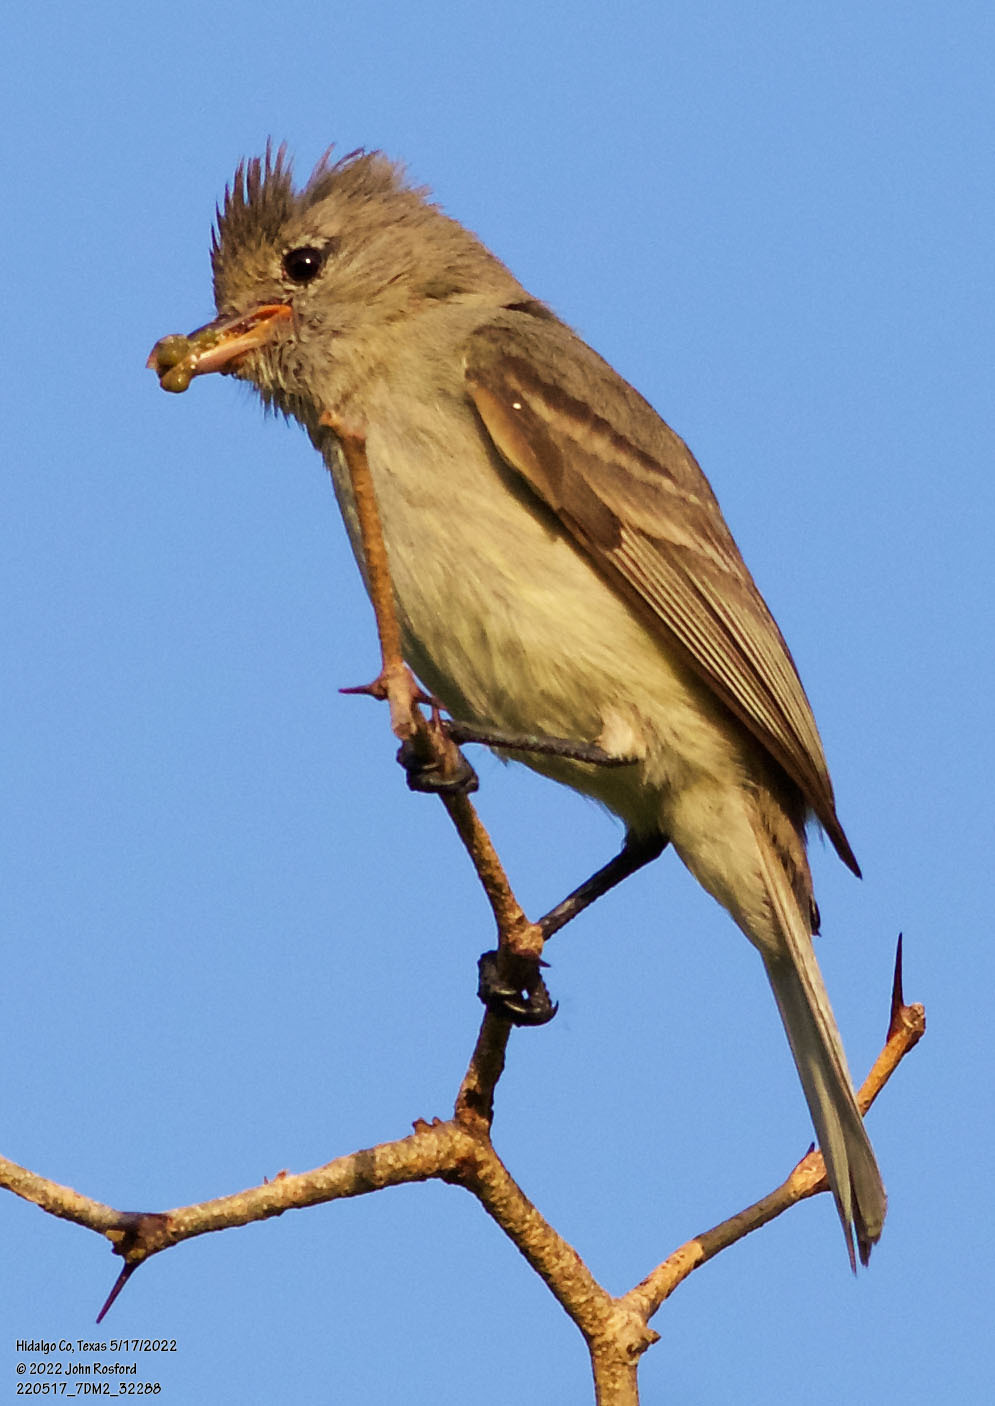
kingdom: Animalia
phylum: Chordata
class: Aves
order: Passeriformes
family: Tyrannidae
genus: Camptostoma
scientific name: Camptostoma imberbe
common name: Northern beardless-tyrannulet
